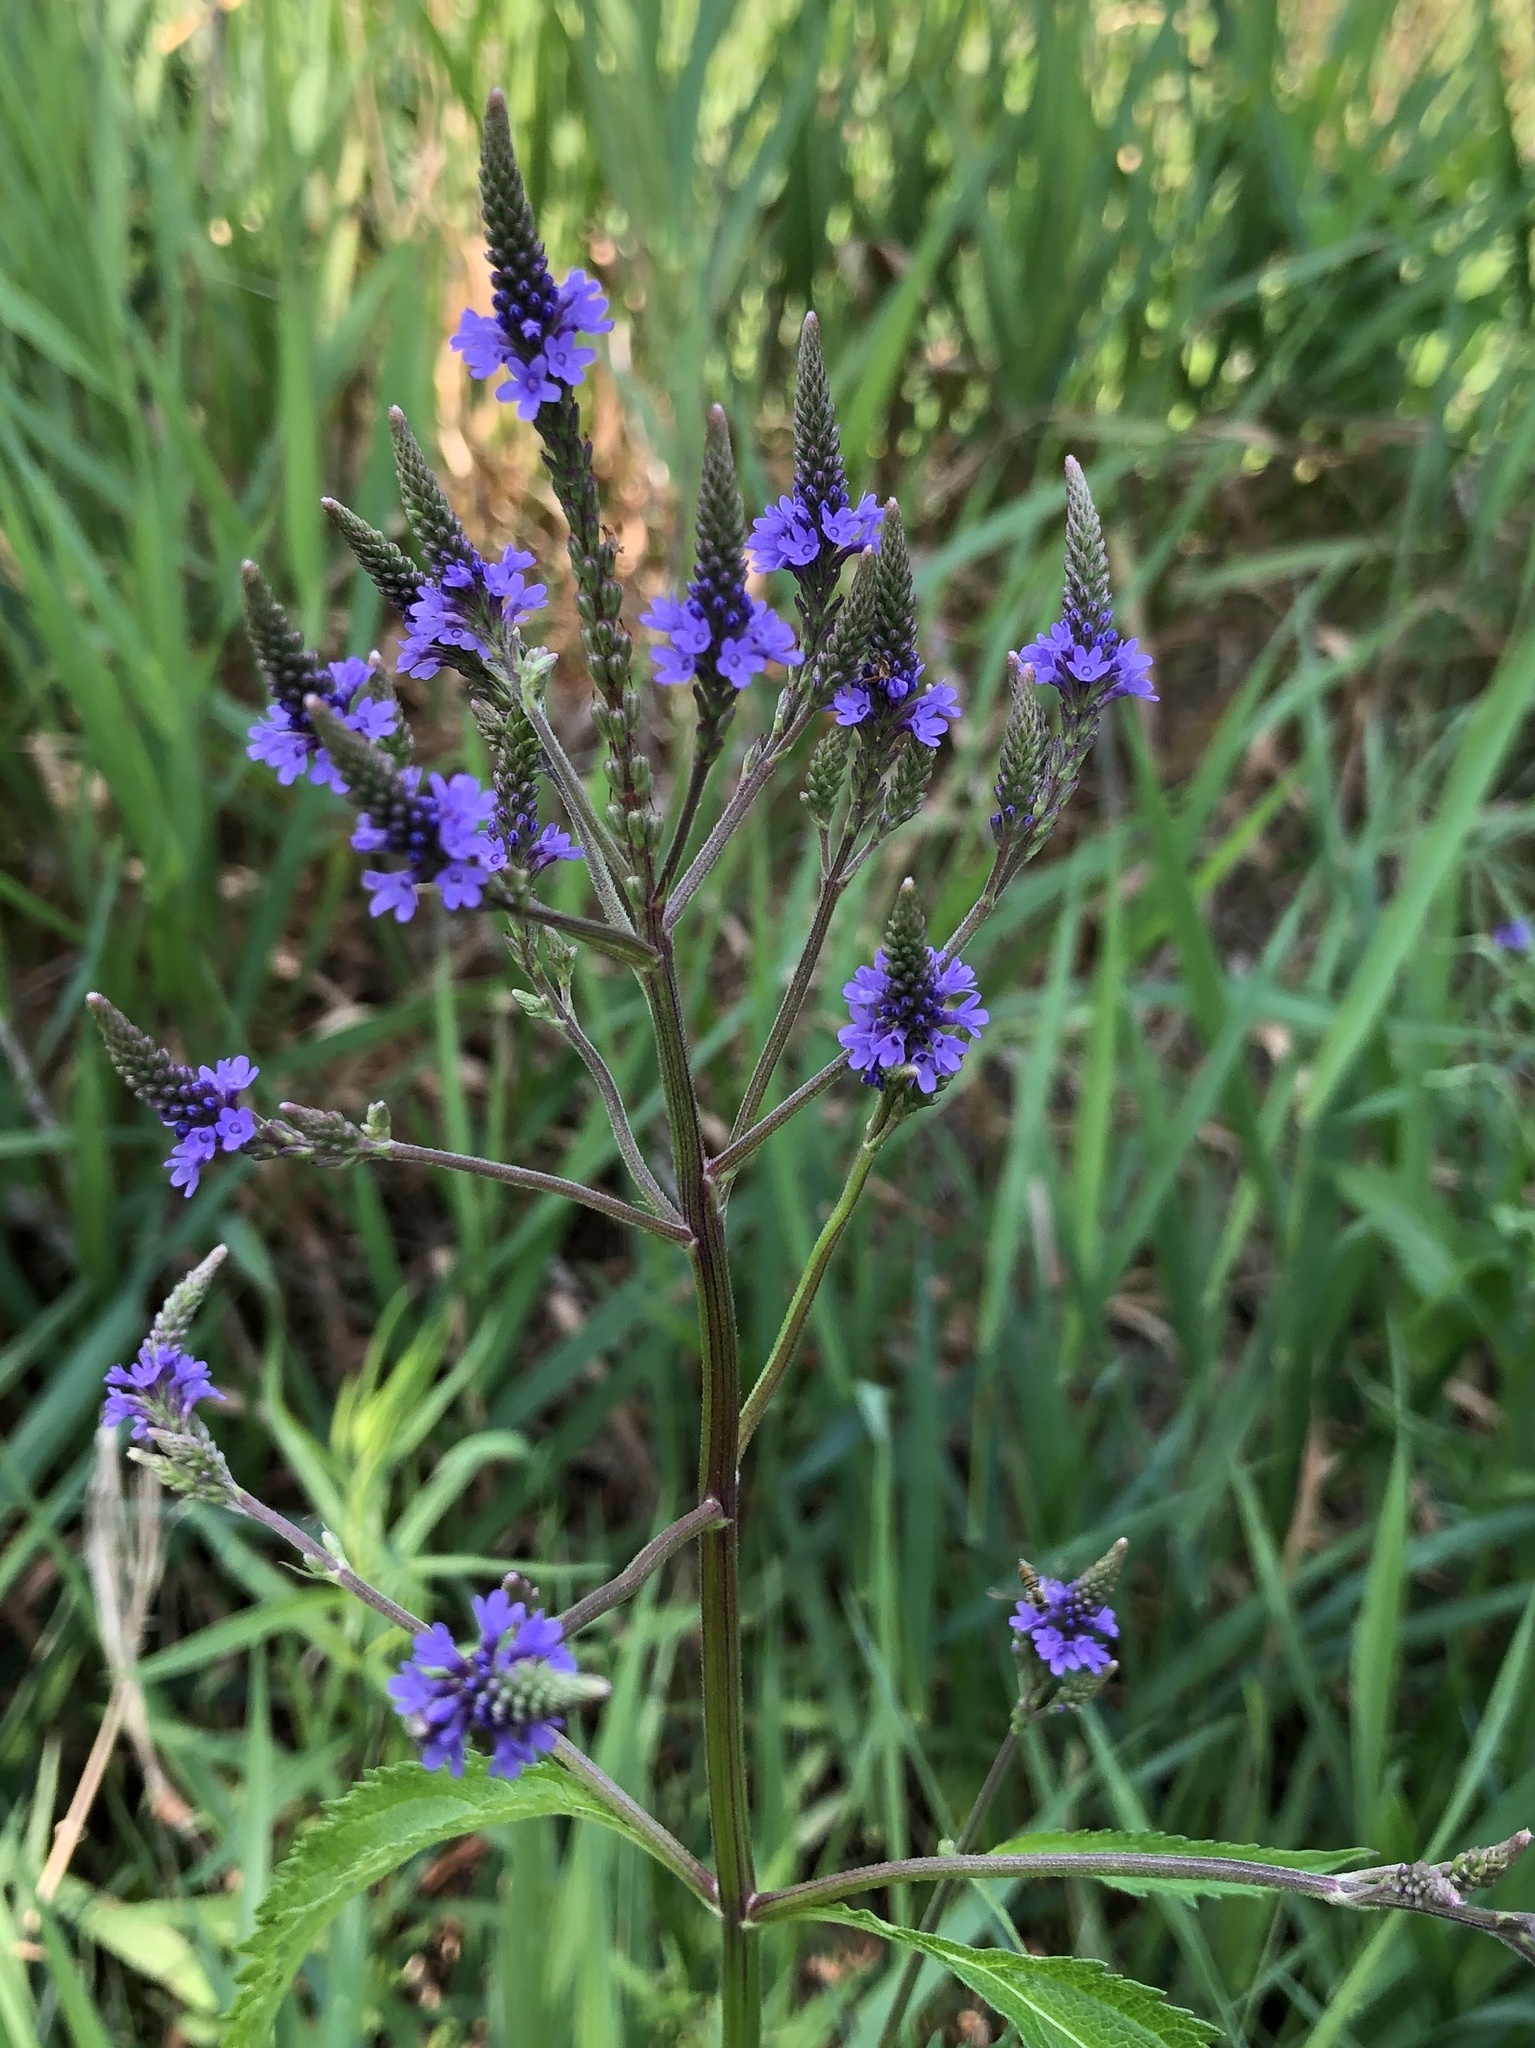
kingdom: Plantae
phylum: Tracheophyta
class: Magnoliopsida
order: Lamiales
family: Verbenaceae
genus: Verbena
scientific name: Verbena hastata
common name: American blue vervain
